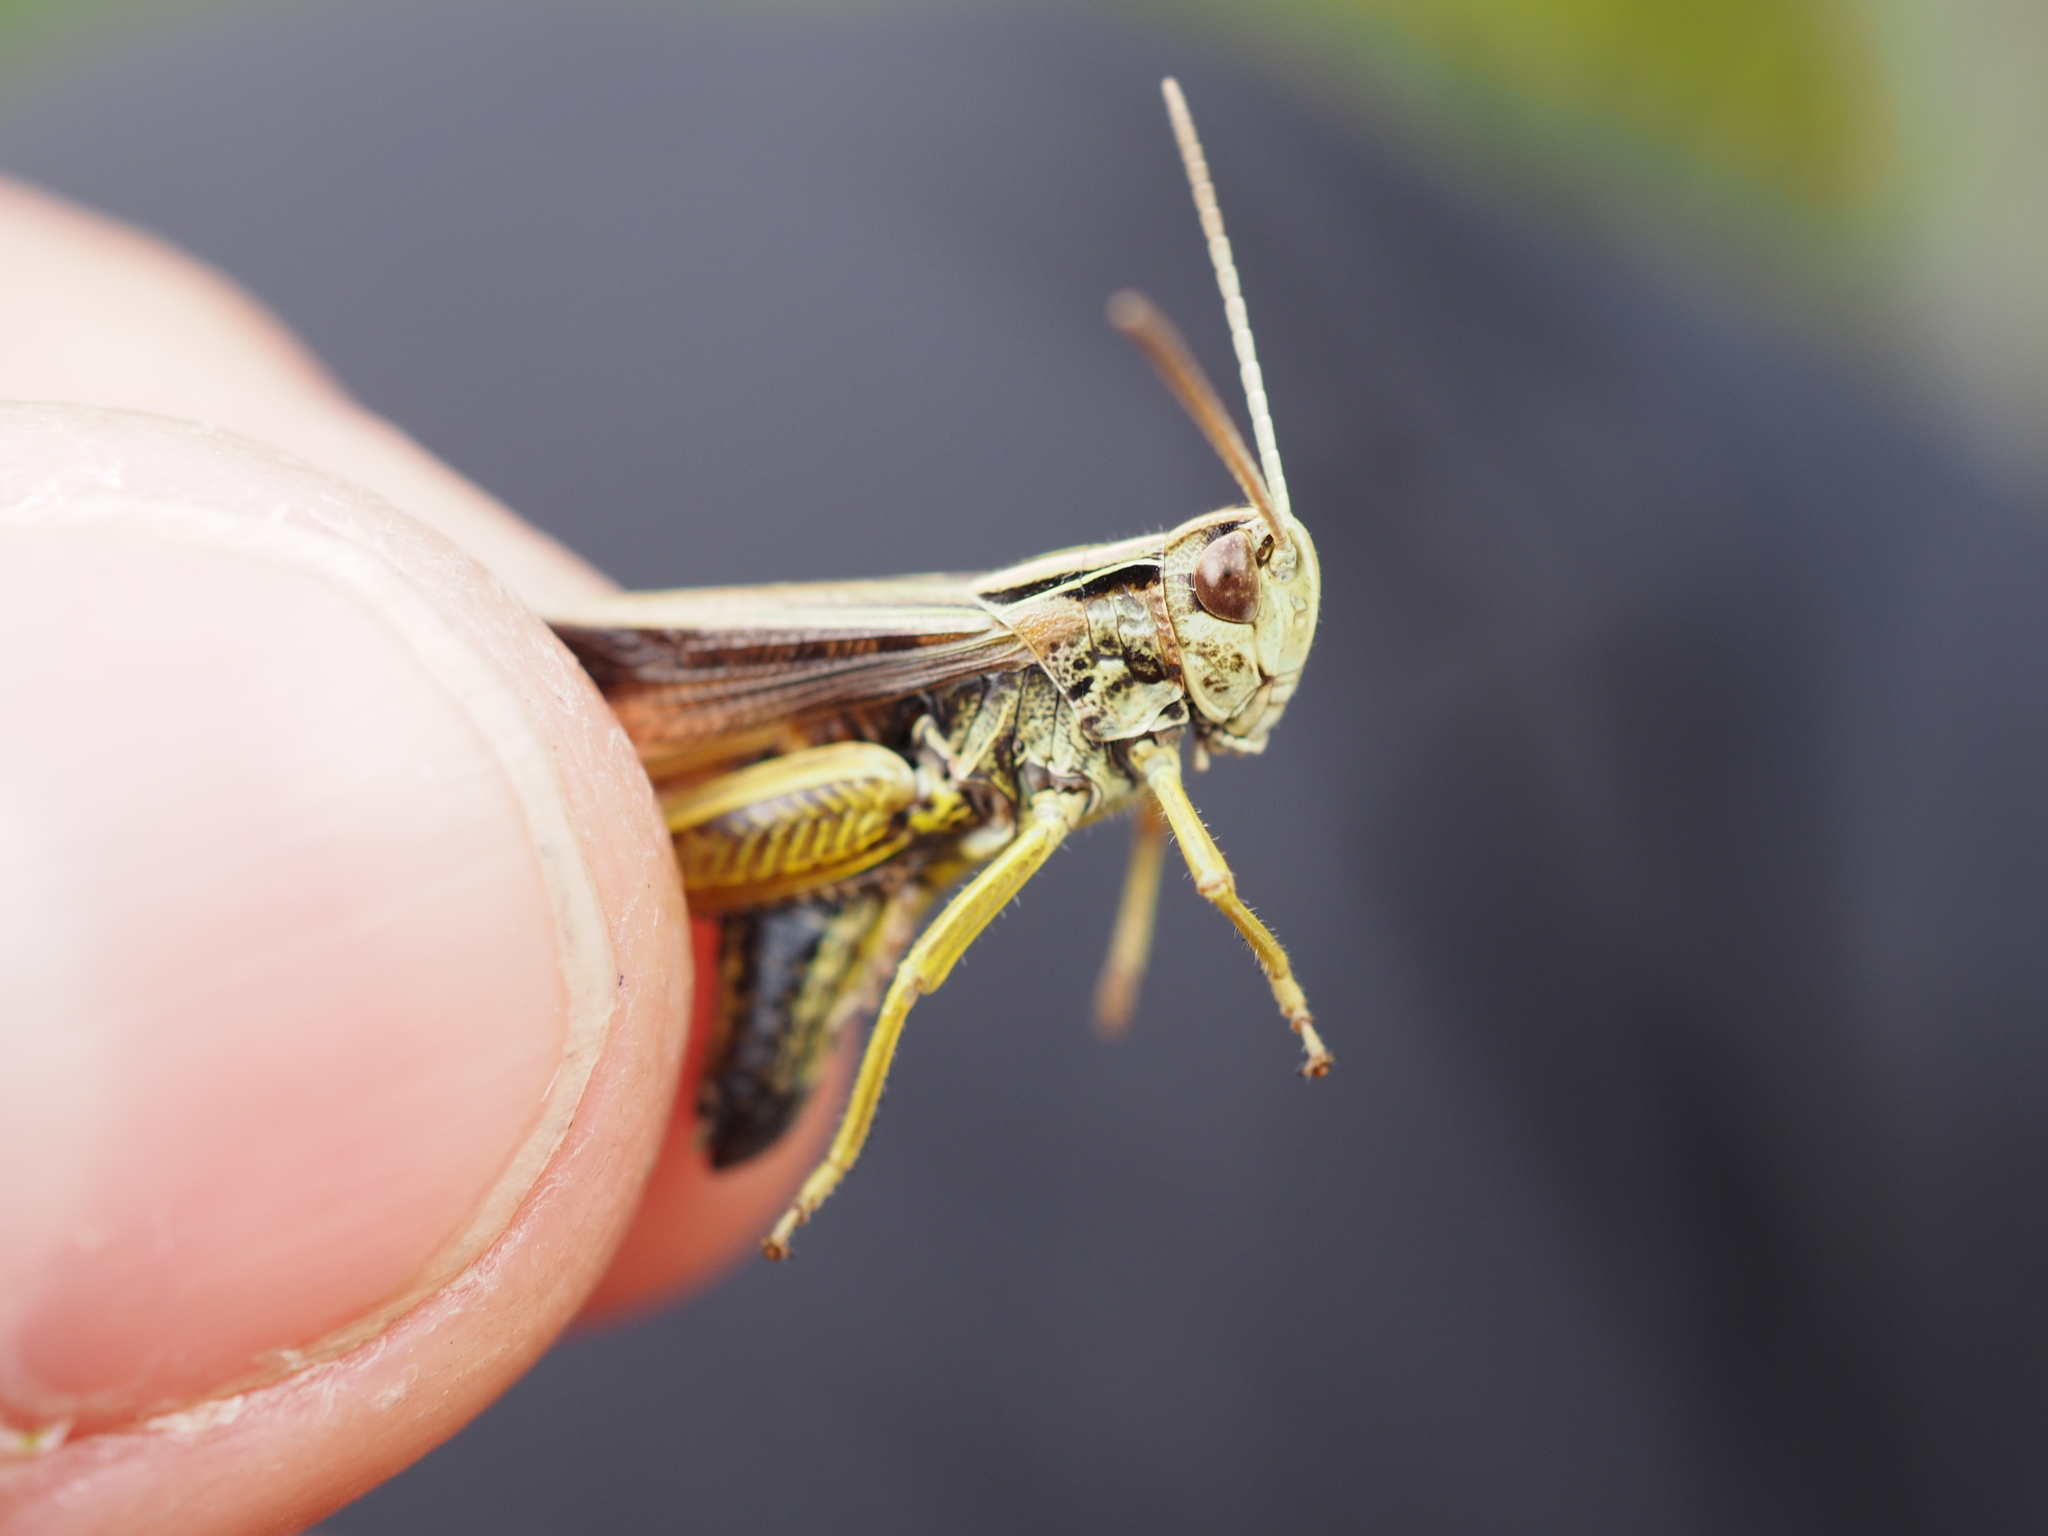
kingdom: Animalia
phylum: Arthropoda
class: Insecta
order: Orthoptera
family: Acrididae
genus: Omocestus
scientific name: Omocestus viridulus
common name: Common green grasshopper
